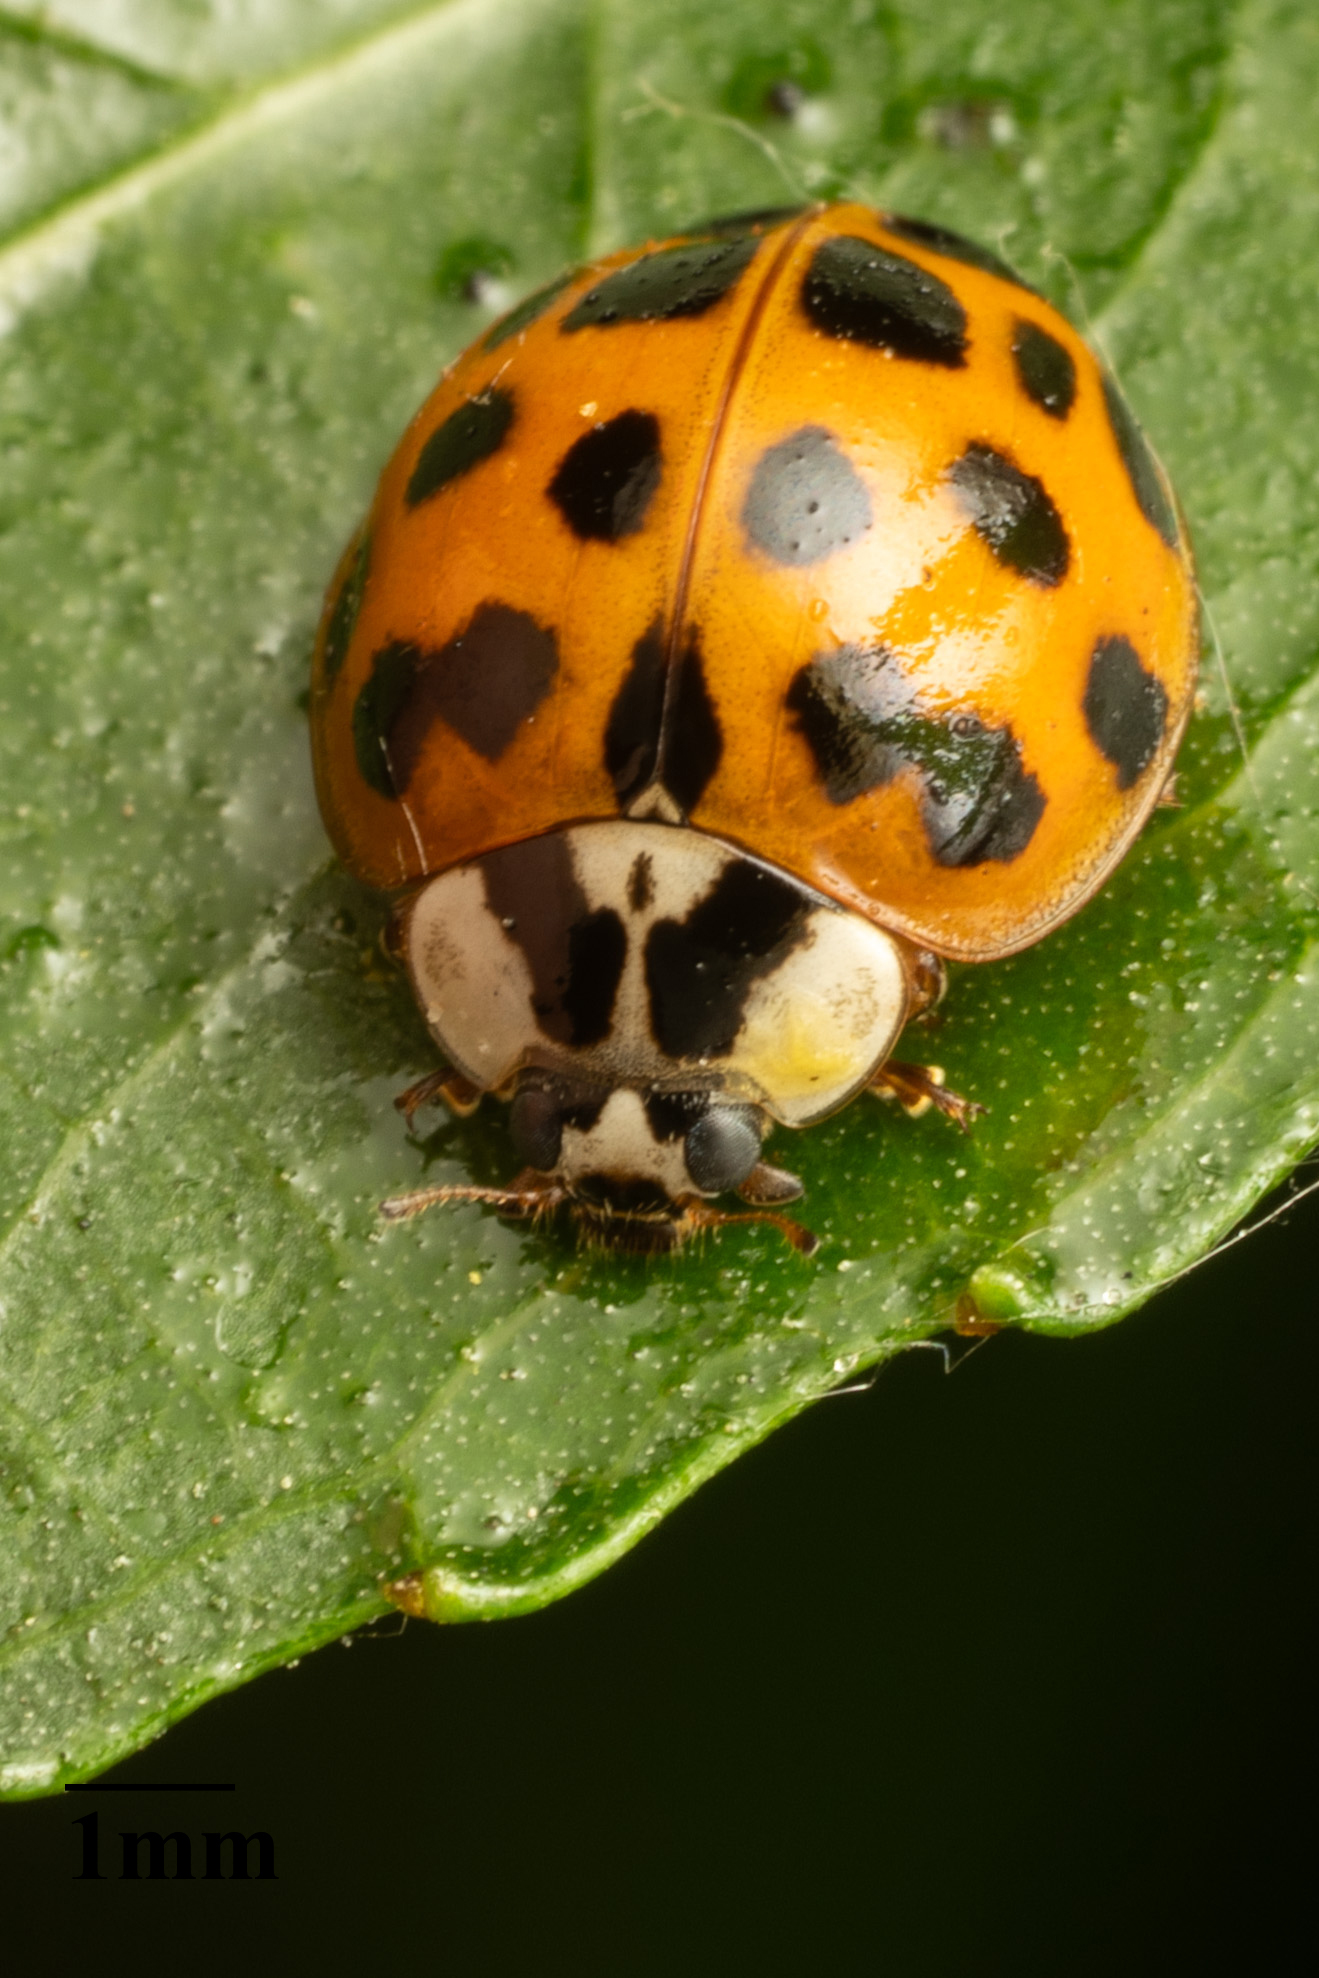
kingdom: Animalia
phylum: Arthropoda
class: Insecta
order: Coleoptera
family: Coccinellidae
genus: Harmonia
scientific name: Harmonia axyridis
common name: Harlequin ladybird
